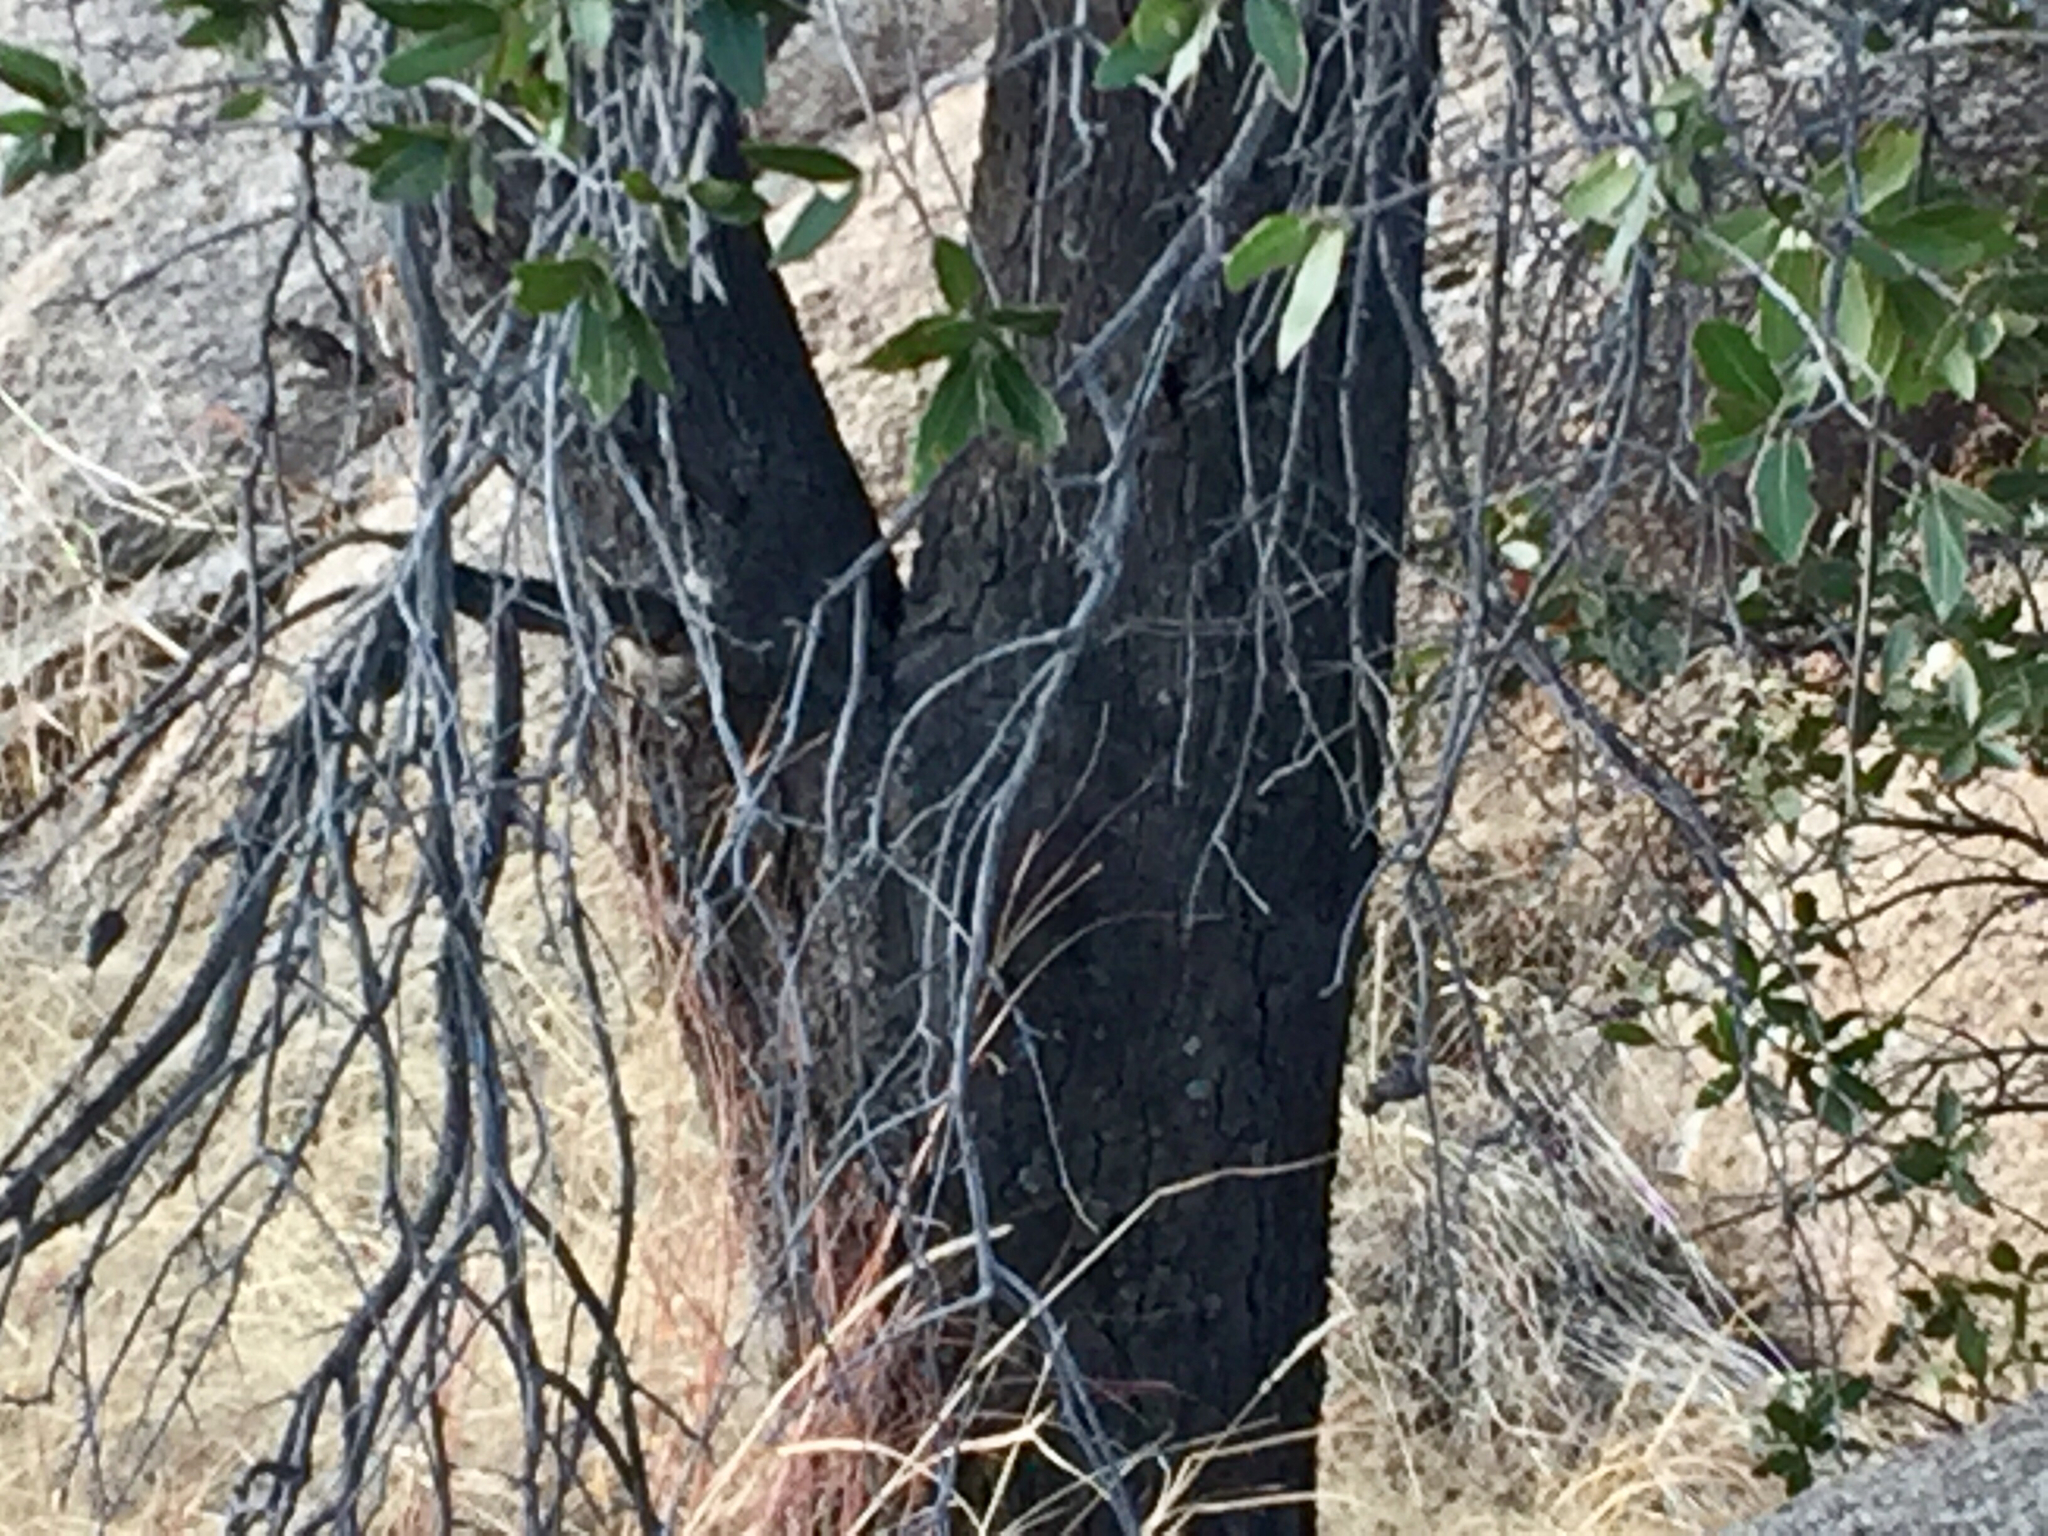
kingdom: Plantae
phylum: Tracheophyta
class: Magnoliopsida
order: Fagales
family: Fagaceae
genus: Quercus
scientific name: Quercus emoryi
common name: Emory oak
